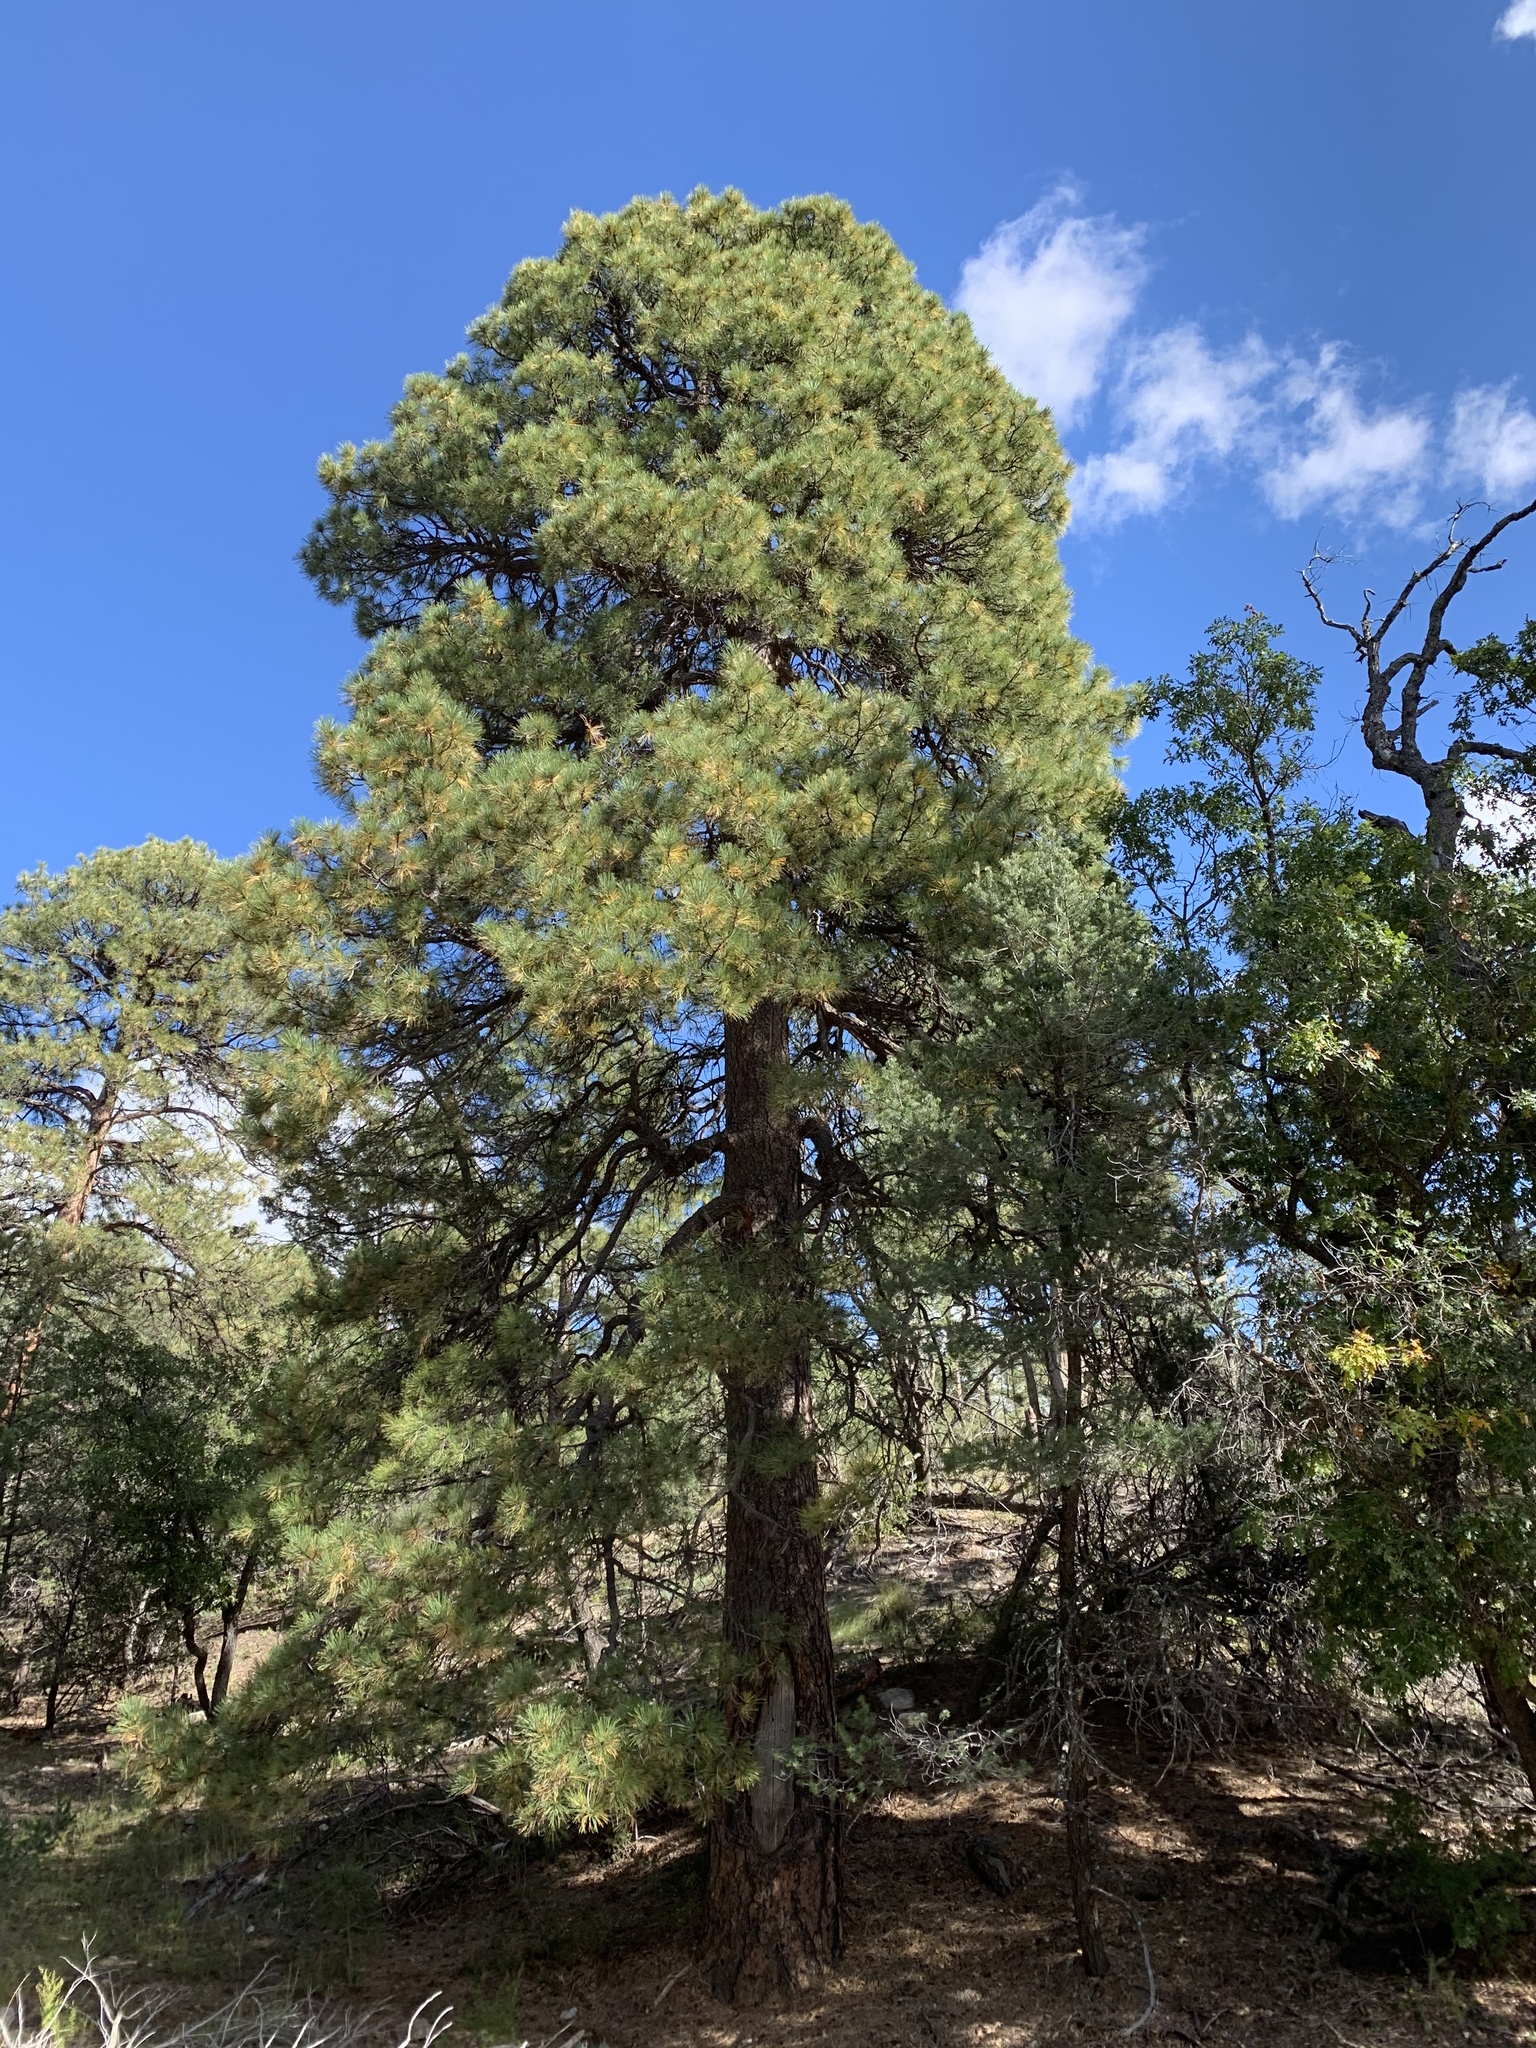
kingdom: Plantae
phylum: Tracheophyta
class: Pinopsida
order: Pinales
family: Pinaceae
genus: Pinus
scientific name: Pinus ponderosa
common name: Western yellow-pine
